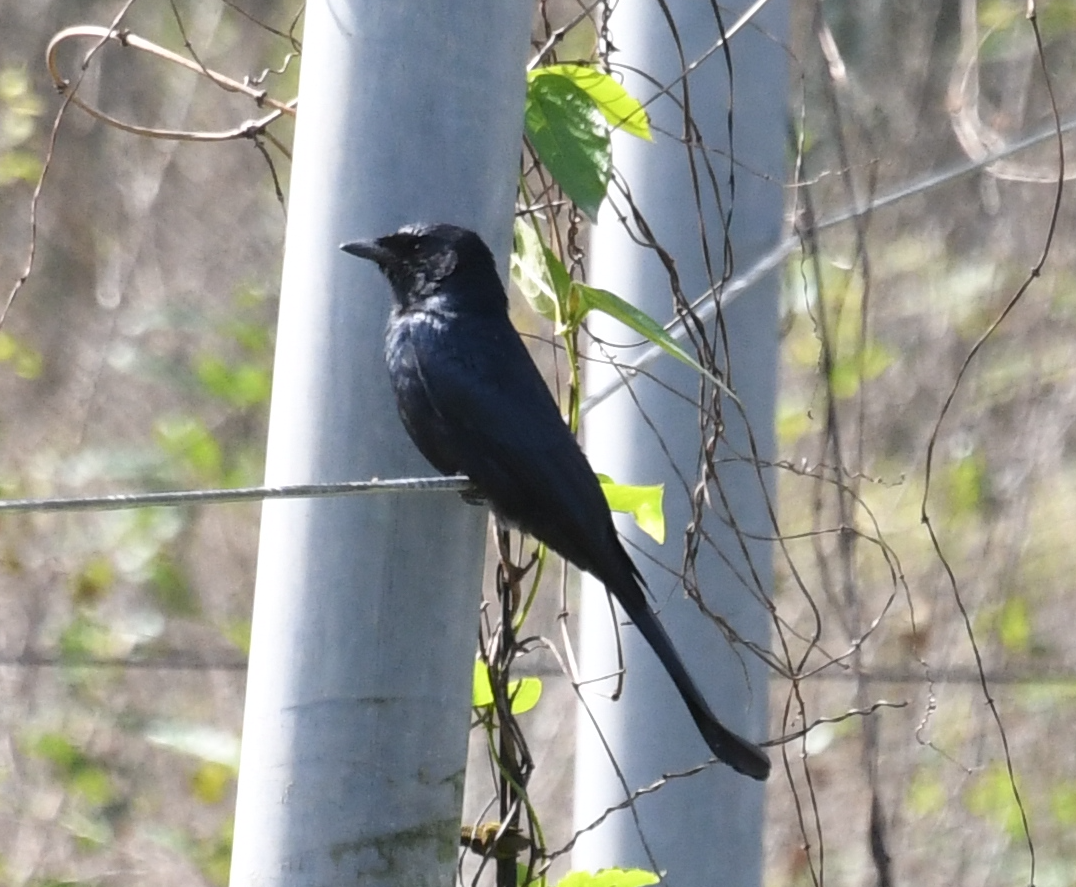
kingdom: Animalia
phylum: Chordata
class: Aves
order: Passeriformes
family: Dicruridae
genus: Dicrurus
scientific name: Dicrurus macrocercus
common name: Black drongo
